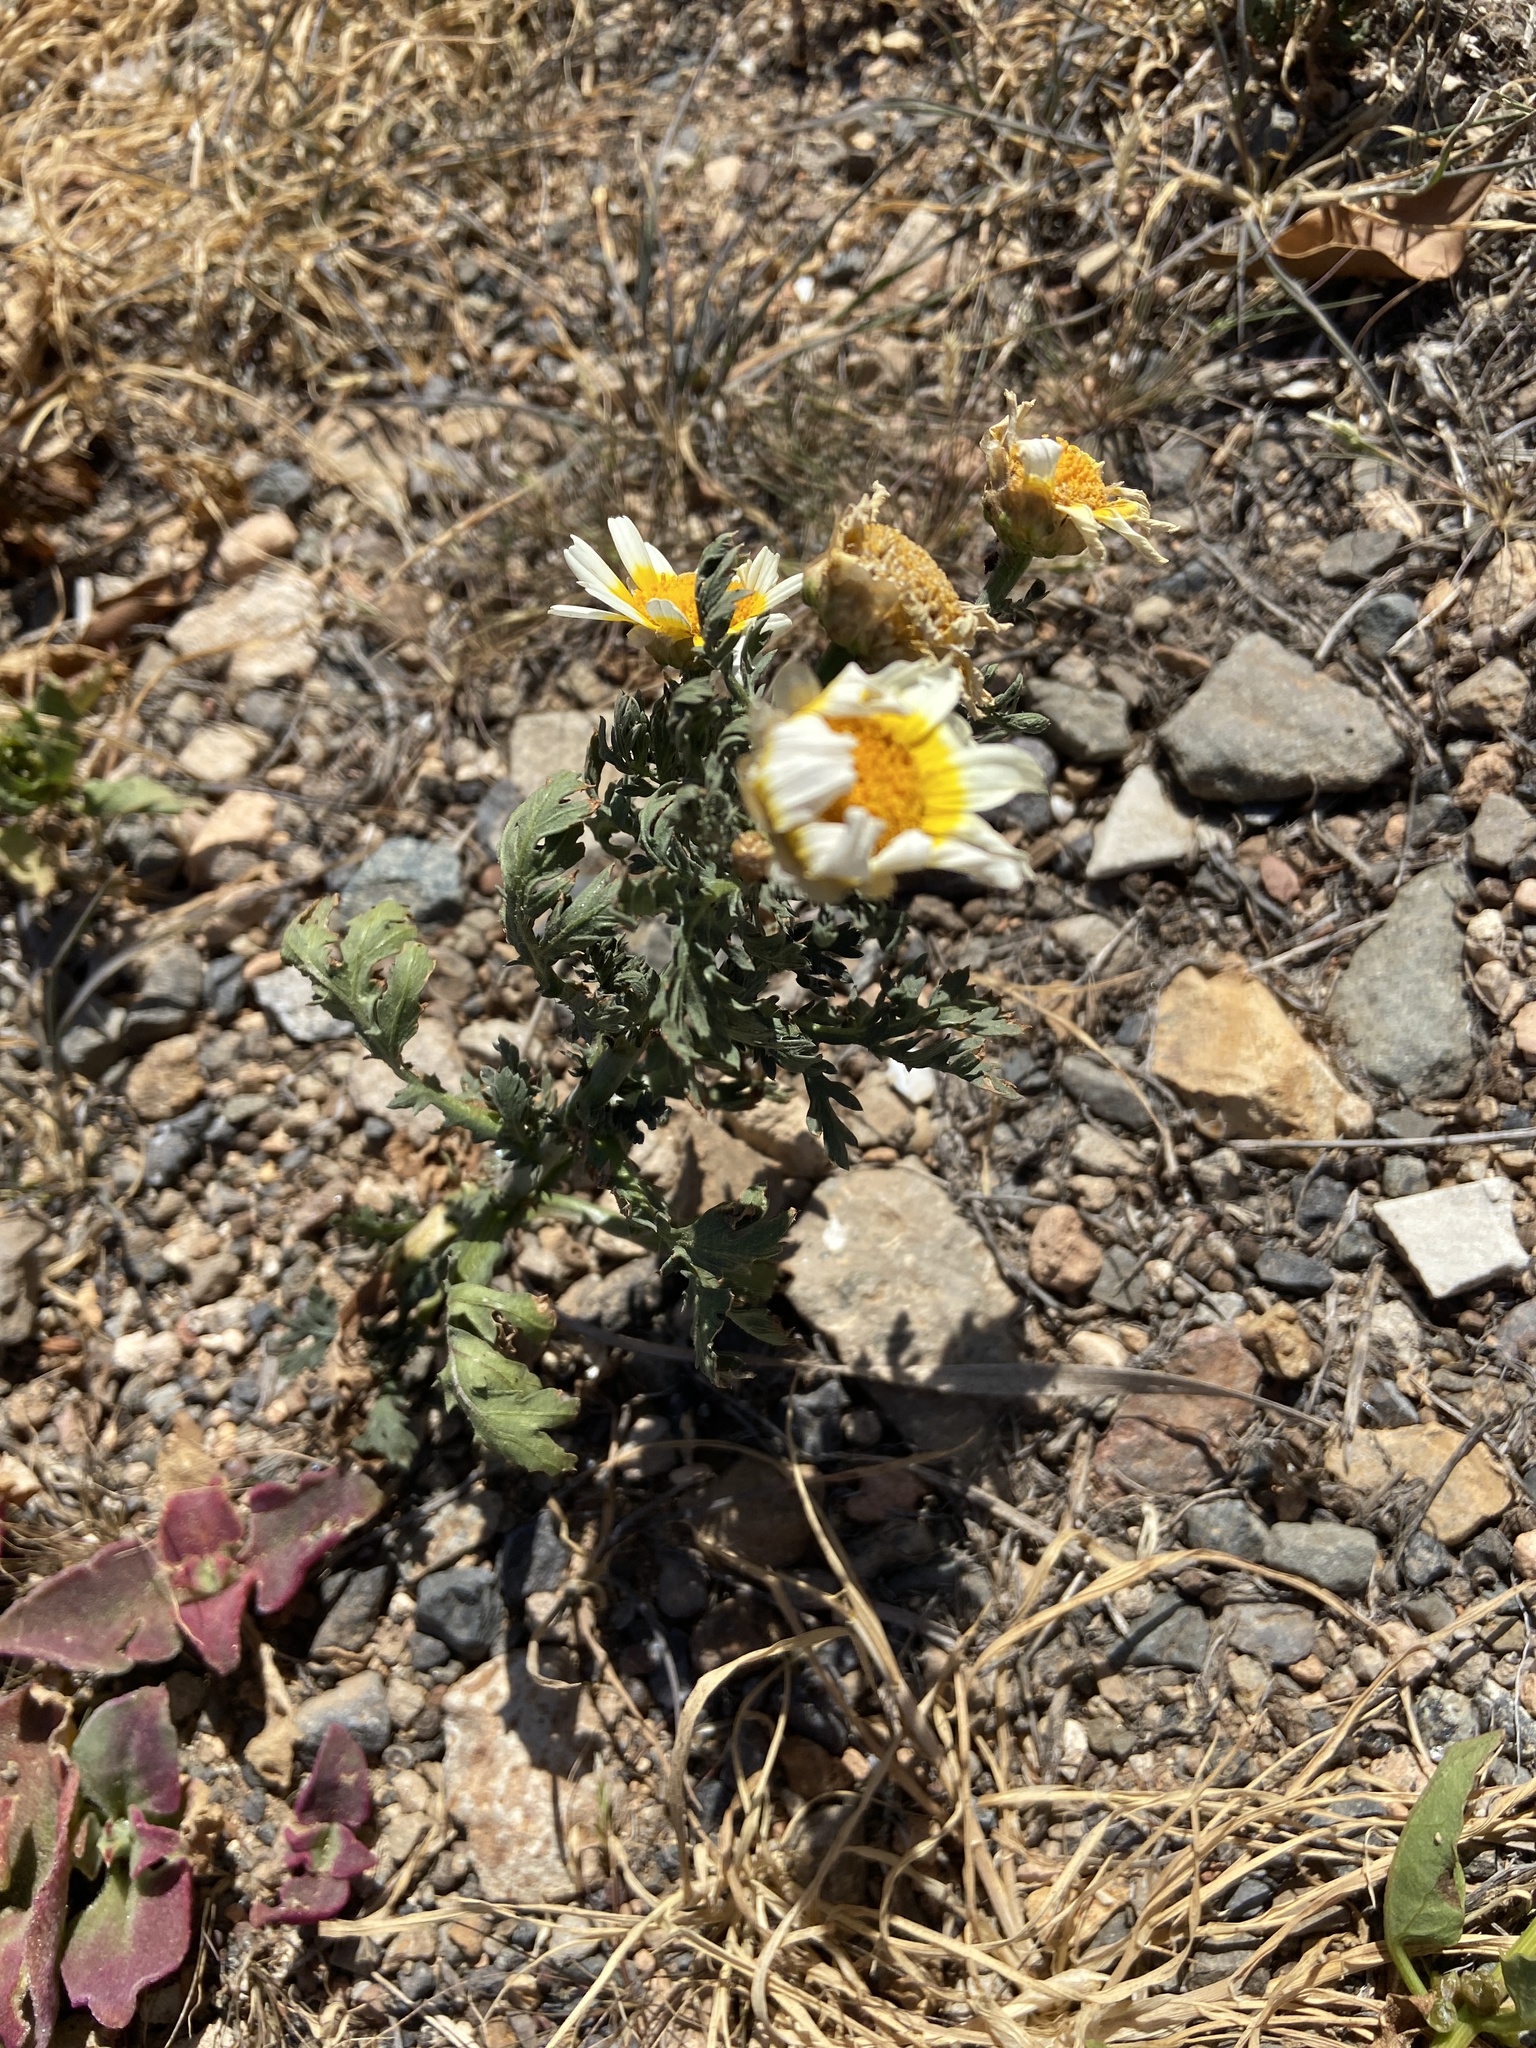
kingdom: Plantae
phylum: Tracheophyta
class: Magnoliopsida
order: Asterales
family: Asteraceae
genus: Glebionis
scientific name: Glebionis coronaria
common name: Crowndaisy
